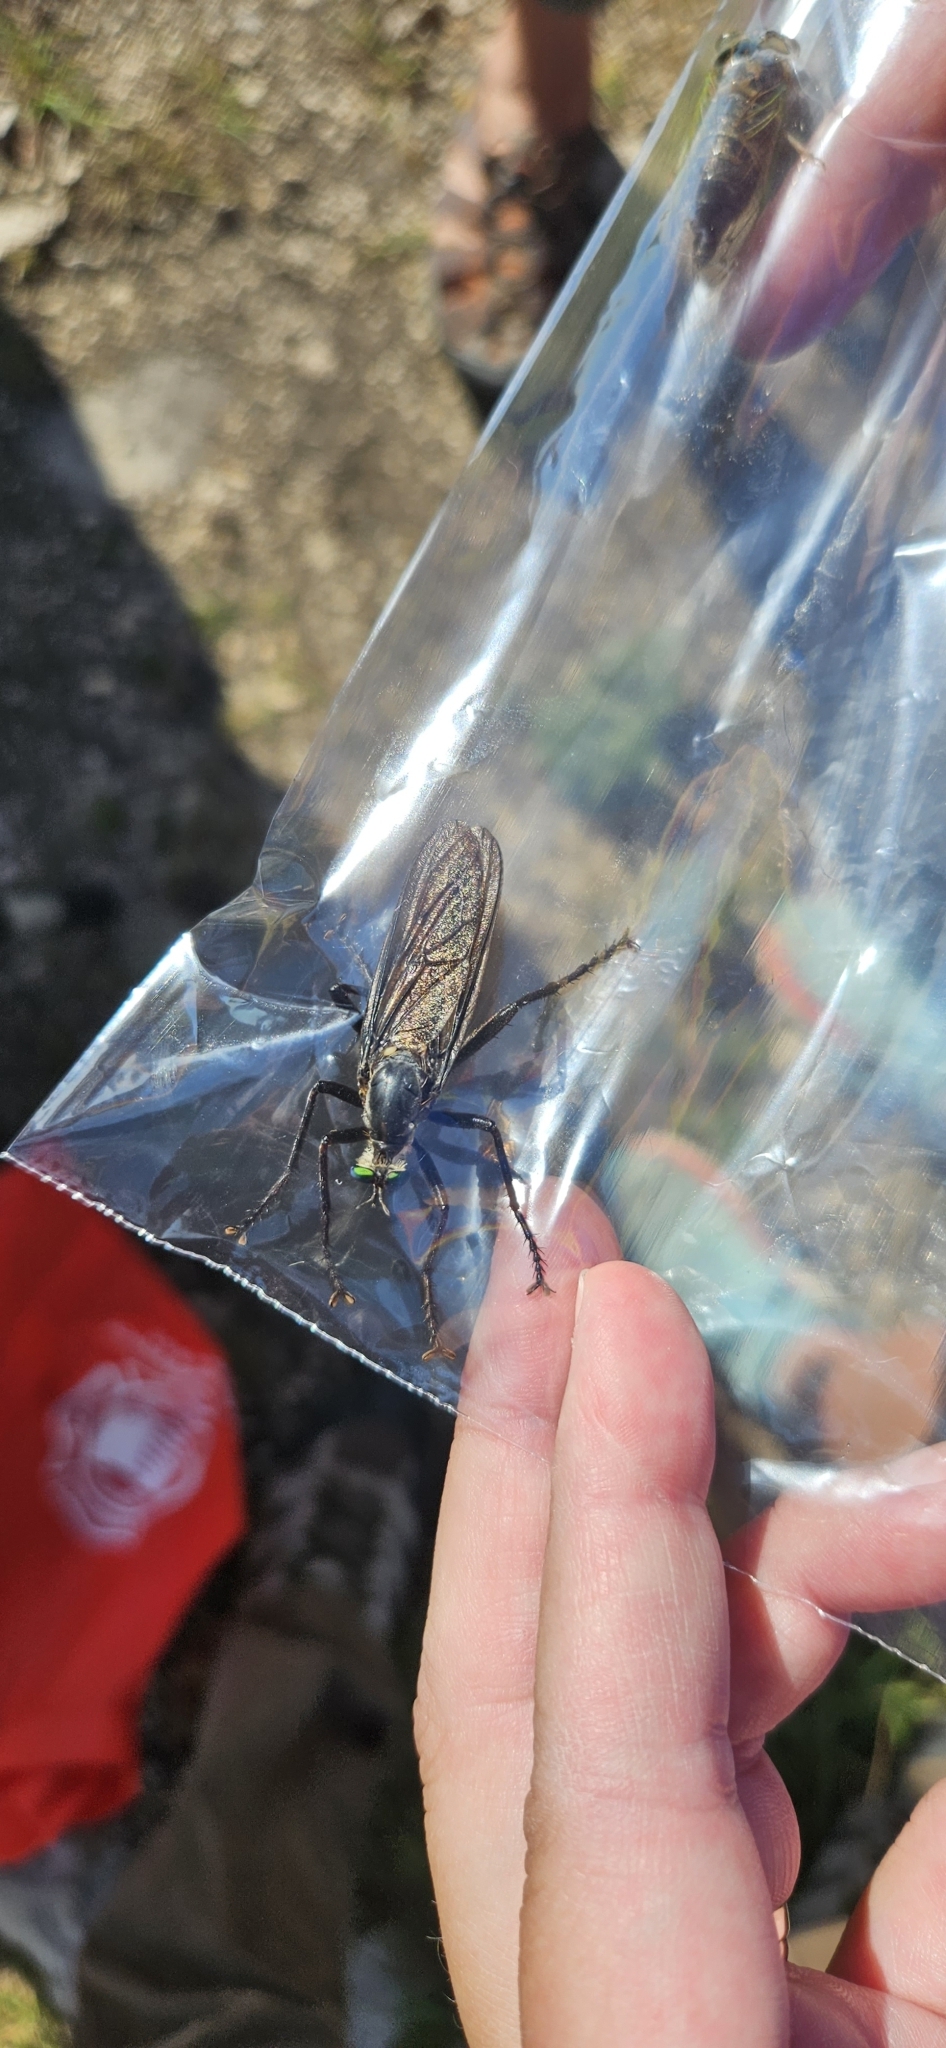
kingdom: Animalia
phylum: Arthropoda
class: Insecta
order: Diptera
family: Asilidae
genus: Microstylum
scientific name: Microstylum morosum
